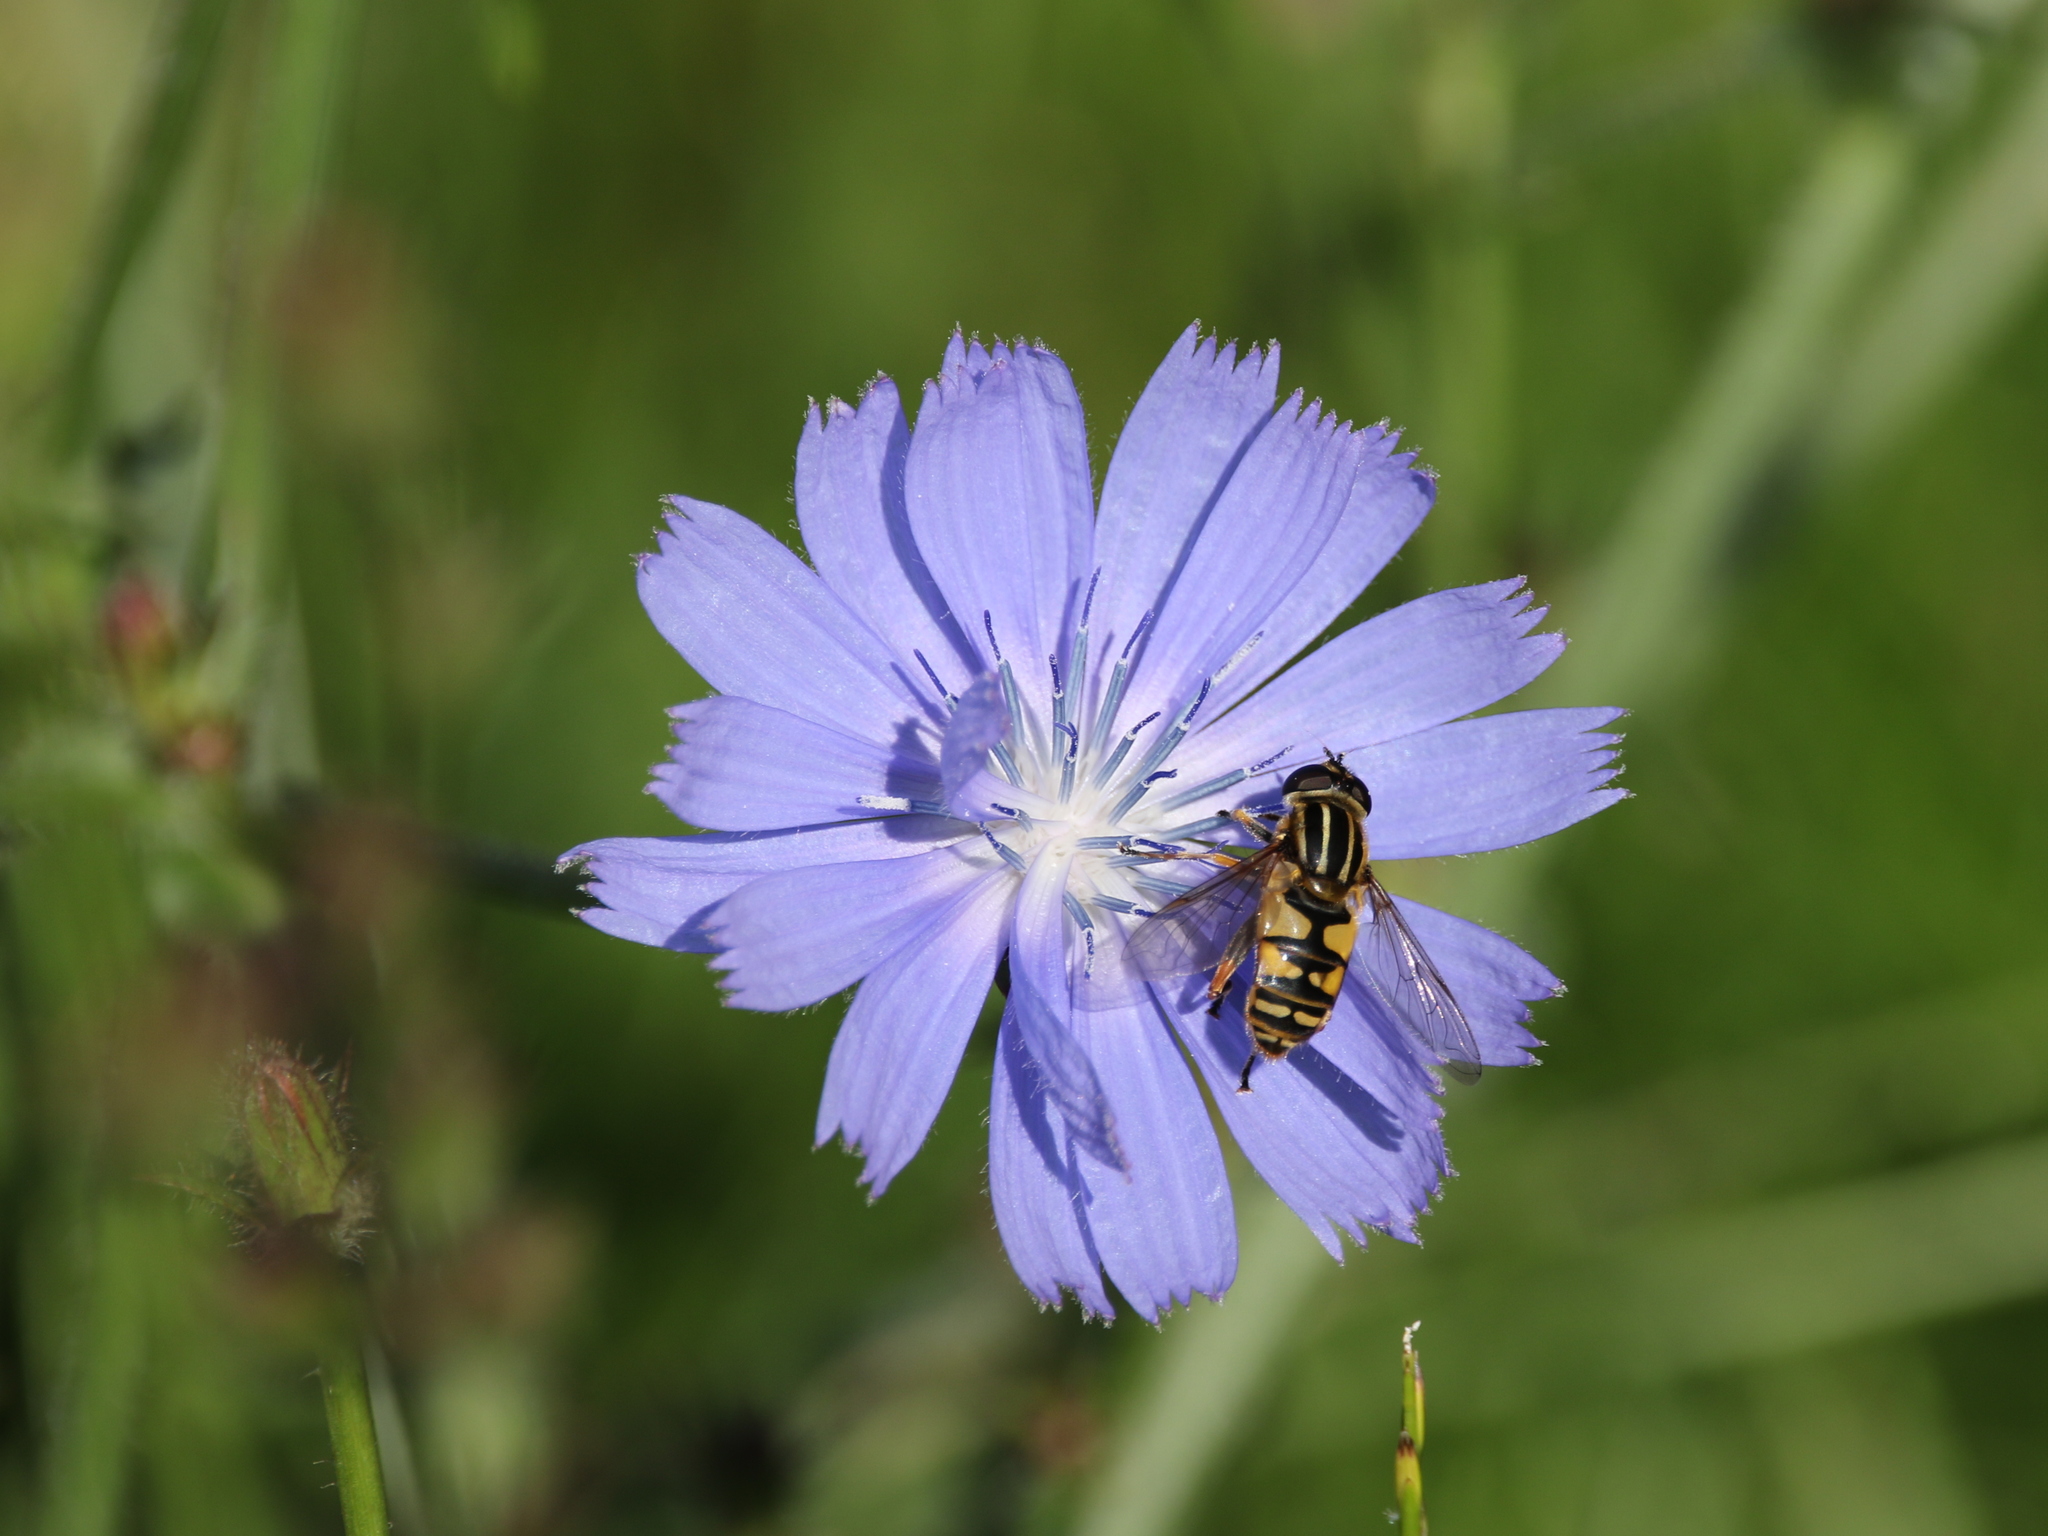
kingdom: Plantae
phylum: Tracheophyta
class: Magnoliopsida
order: Asterales
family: Asteraceae
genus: Cichorium
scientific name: Cichorium intybus
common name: Chicory
